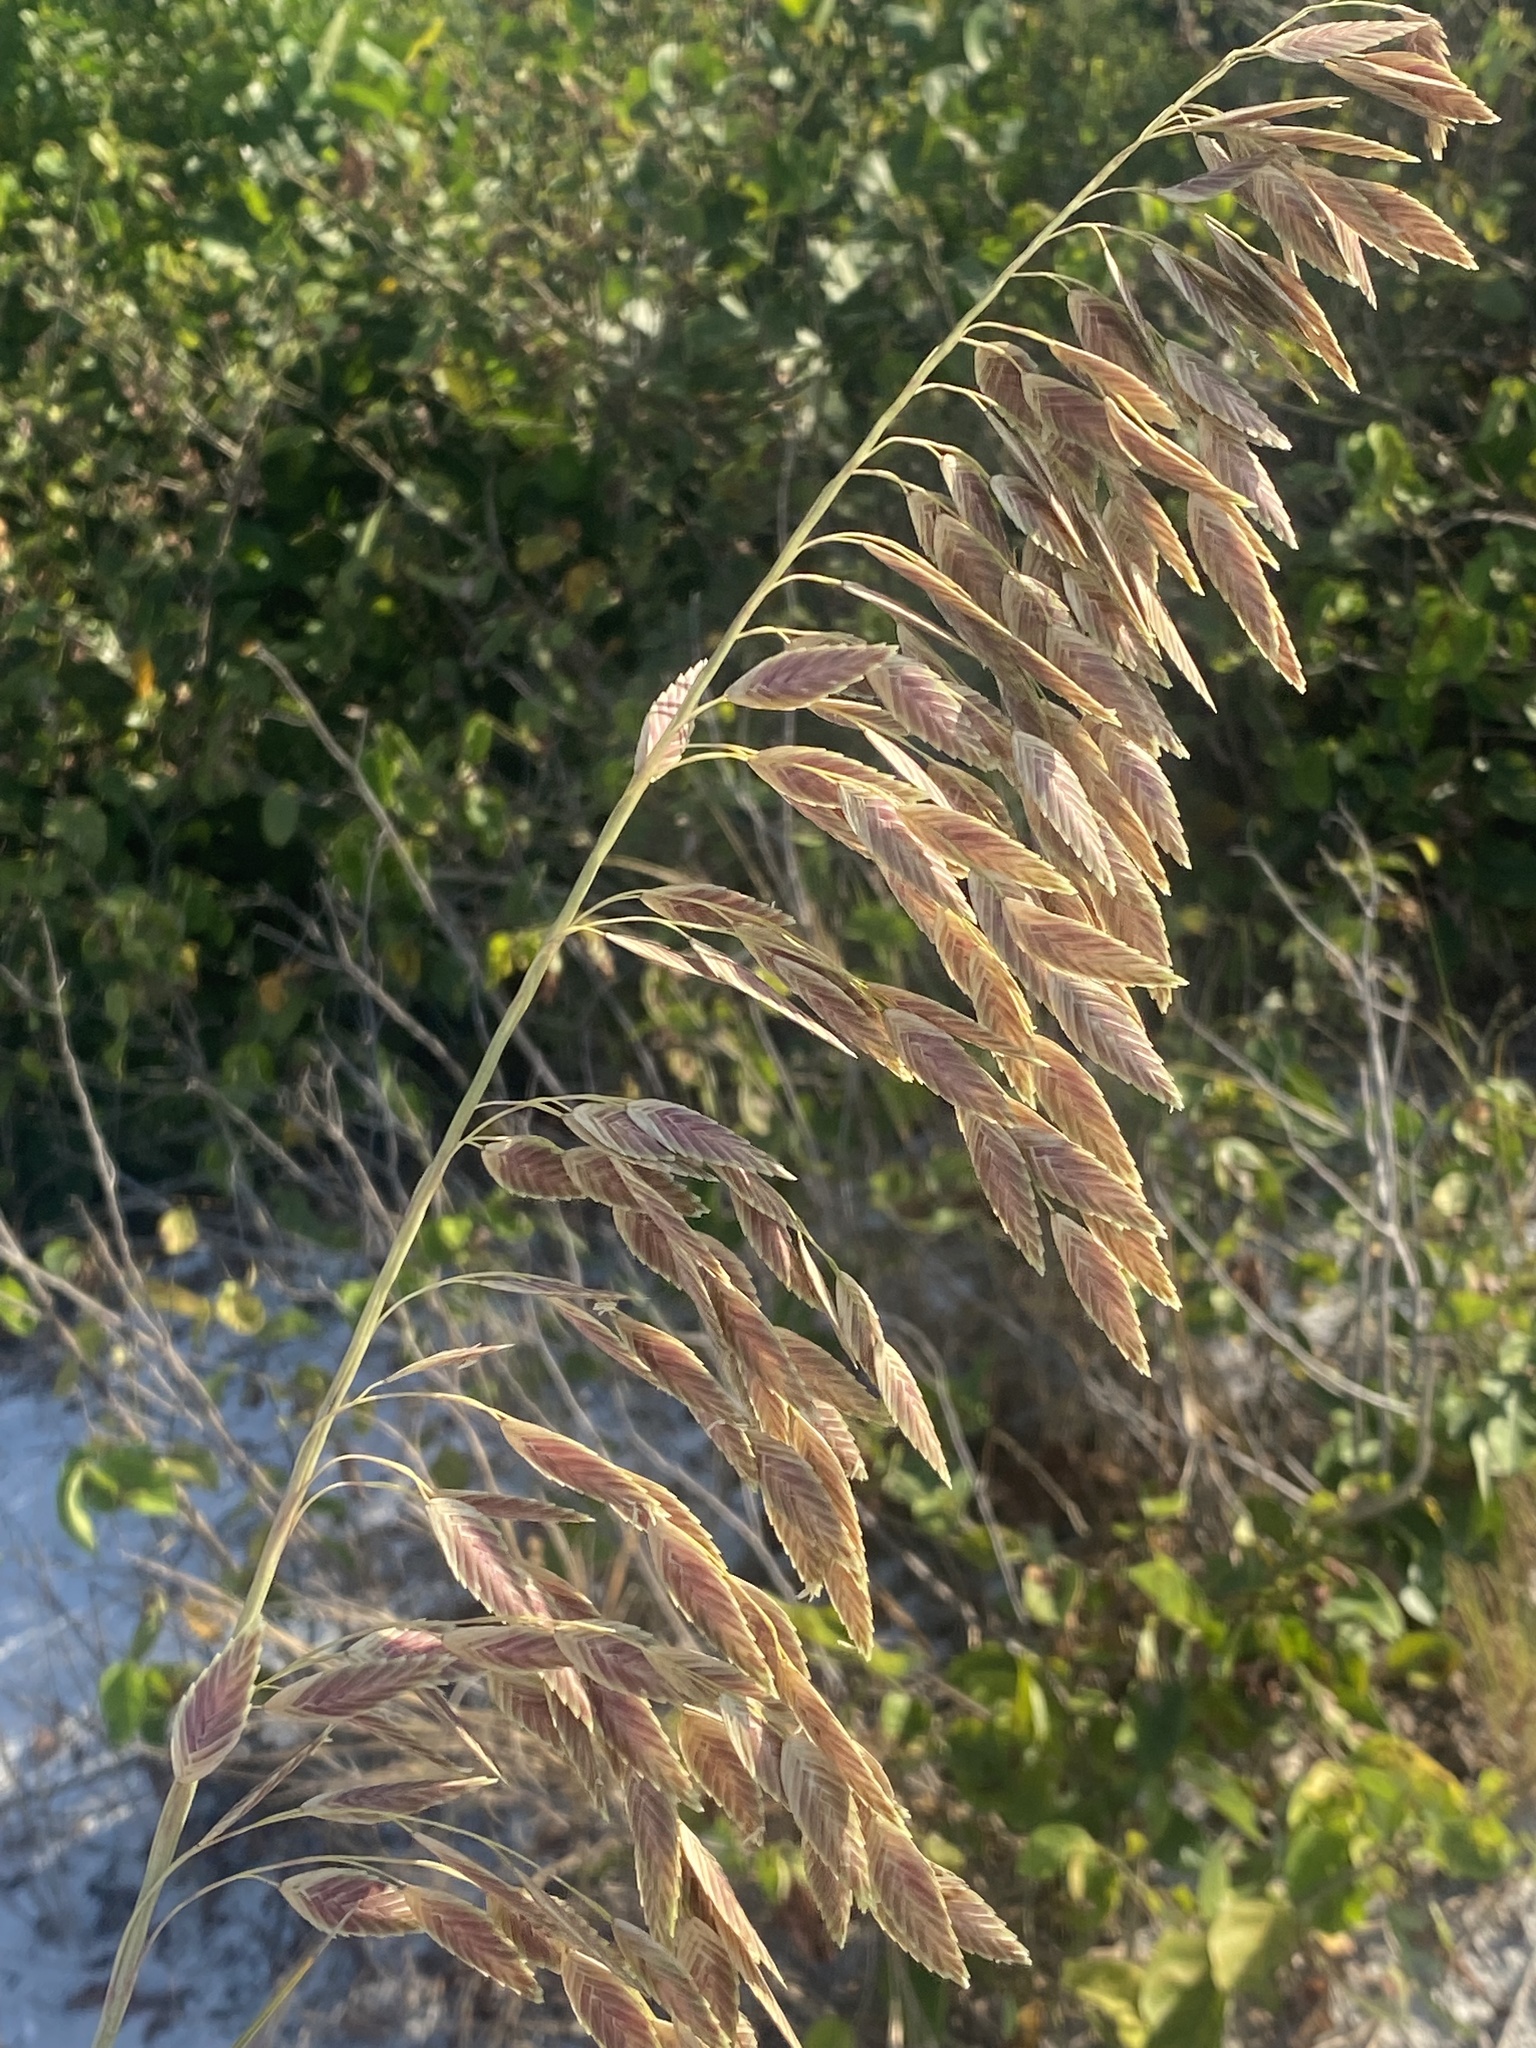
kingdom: Plantae
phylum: Tracheophyta
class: Liliopsida
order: Poales
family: Poaceae
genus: Uniola
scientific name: Uniola paniculata
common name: Seaside-oats
